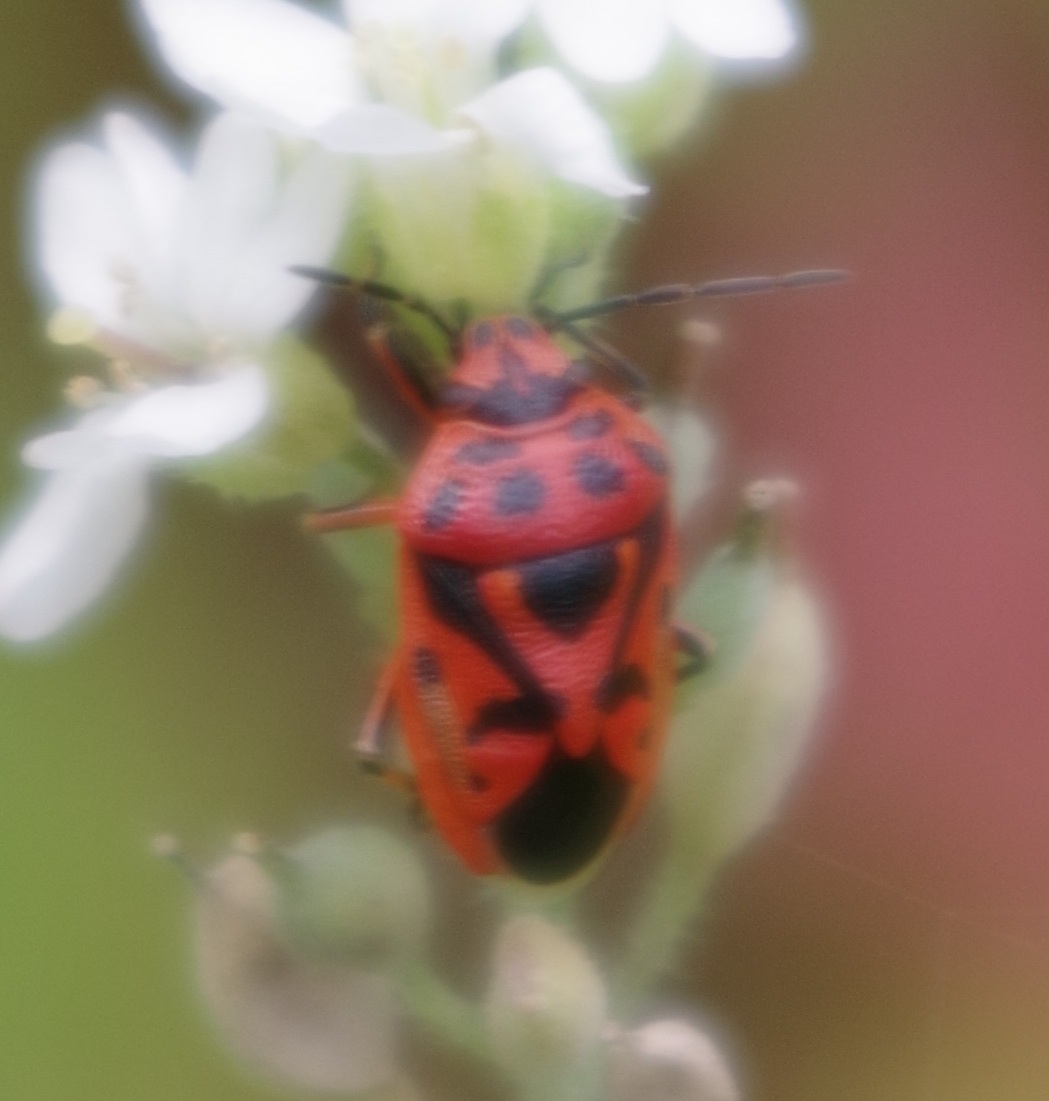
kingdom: Animalia
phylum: Arthropoda
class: Insecta
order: Hemiptera
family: Pentatomidae
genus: Eurydema
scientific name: Eurydema ornata
